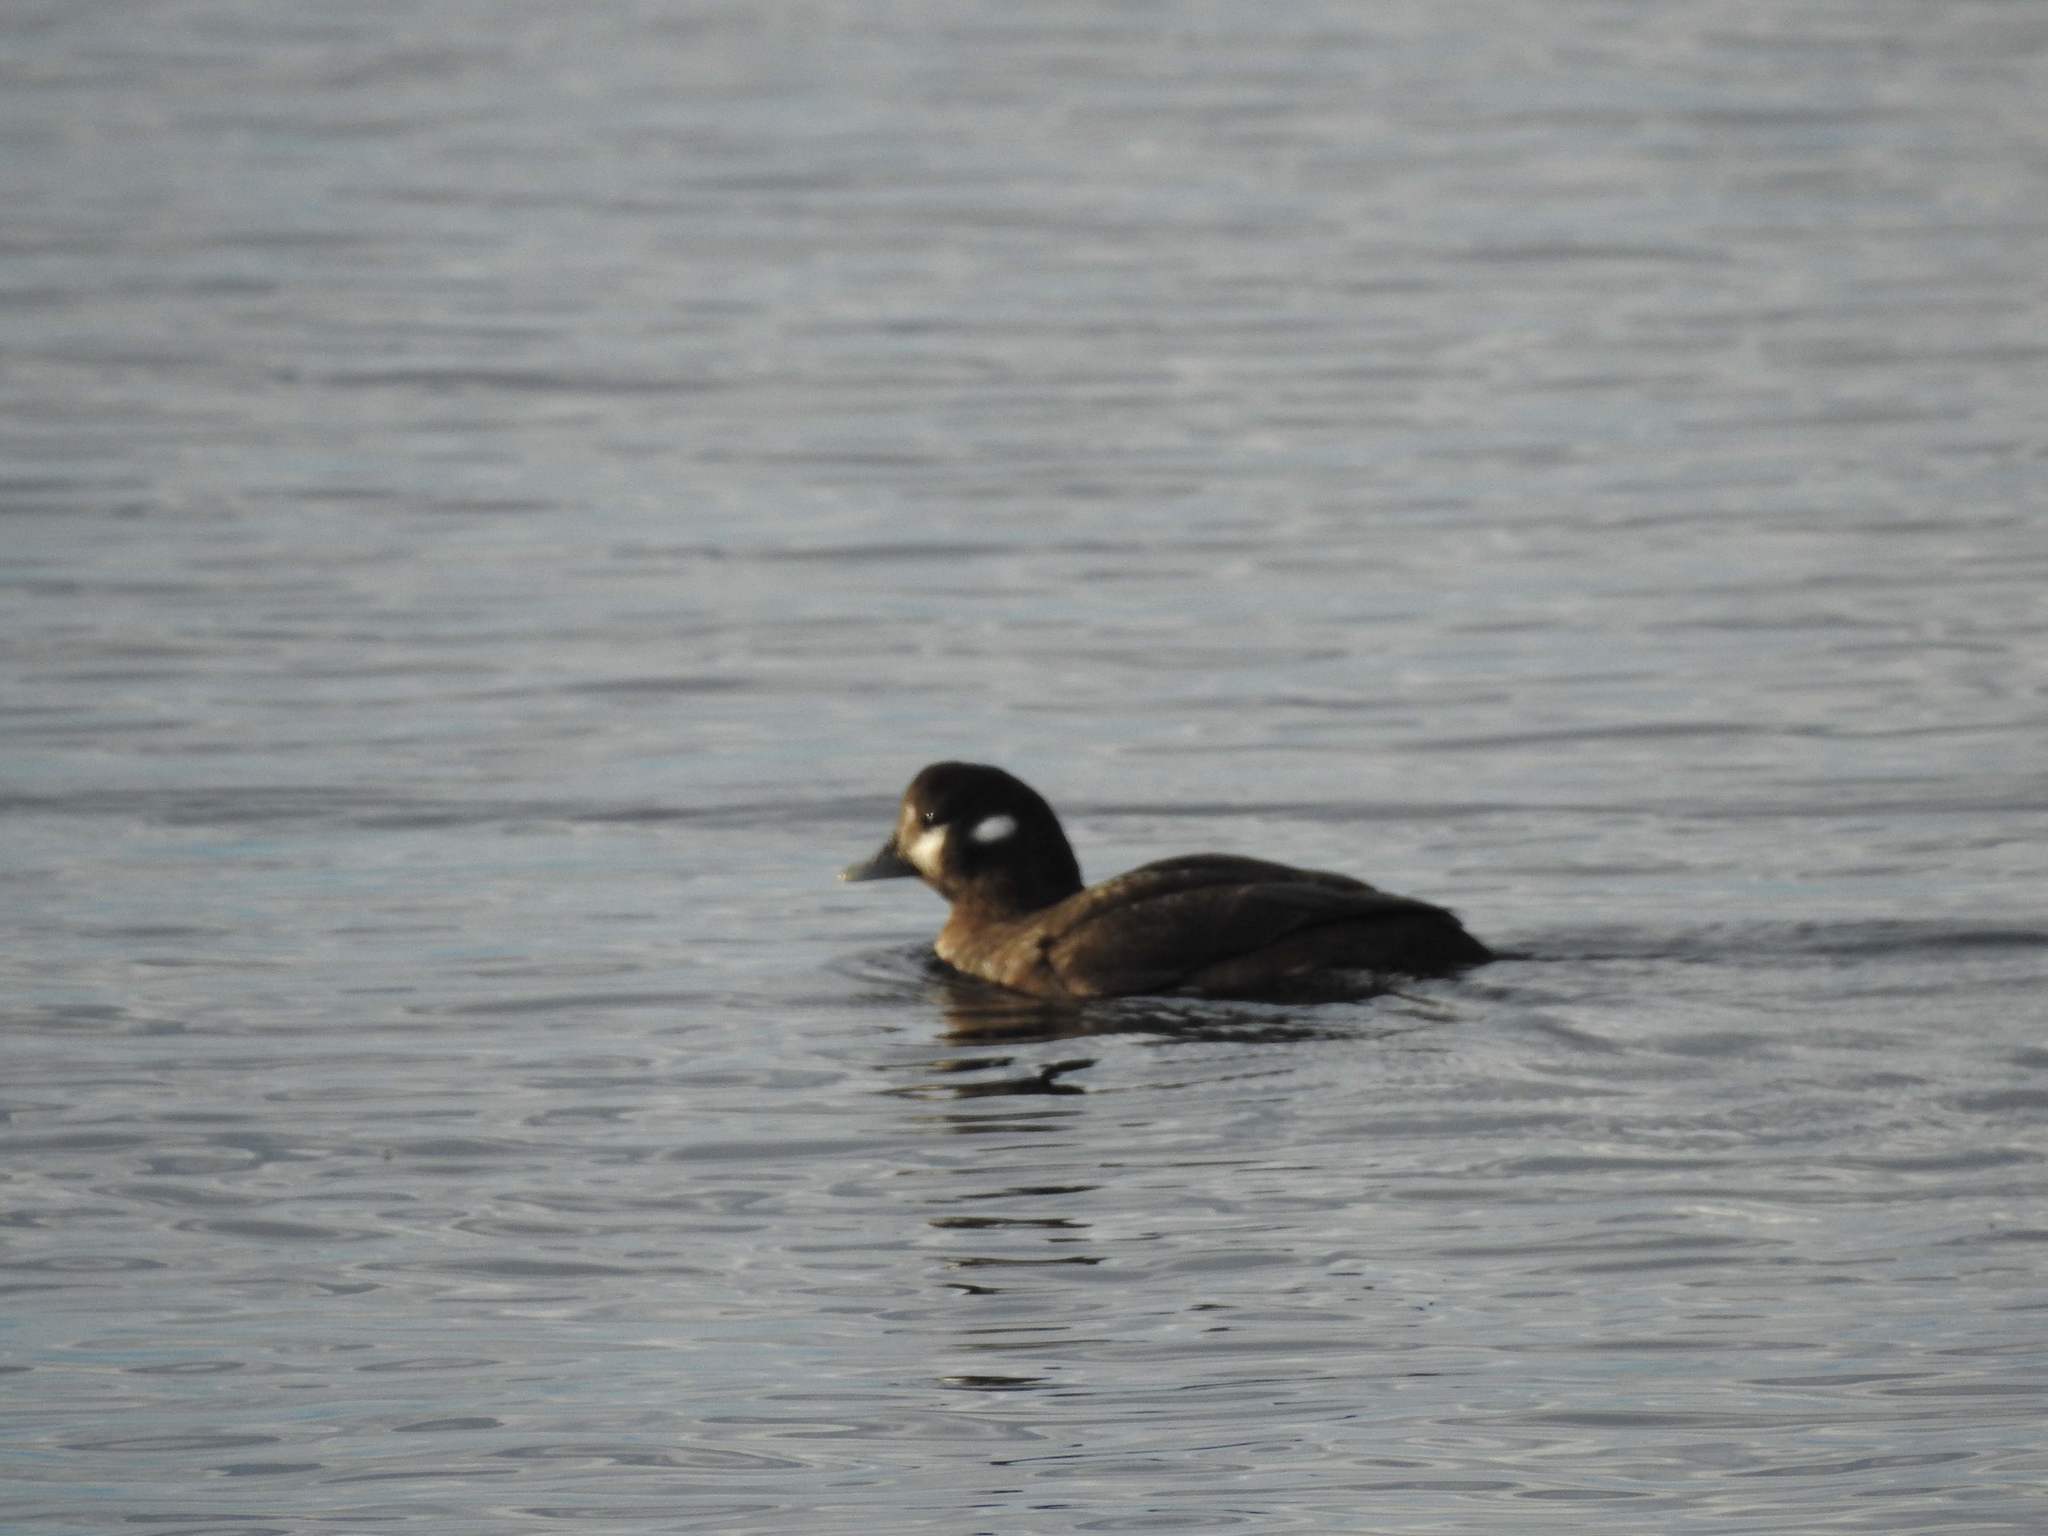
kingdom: Animalia
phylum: Chordata
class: Aves
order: Anseriformes
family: Anatidae
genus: Histrionicus
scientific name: Histrionicus histrionicus
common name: Harlequin duck
